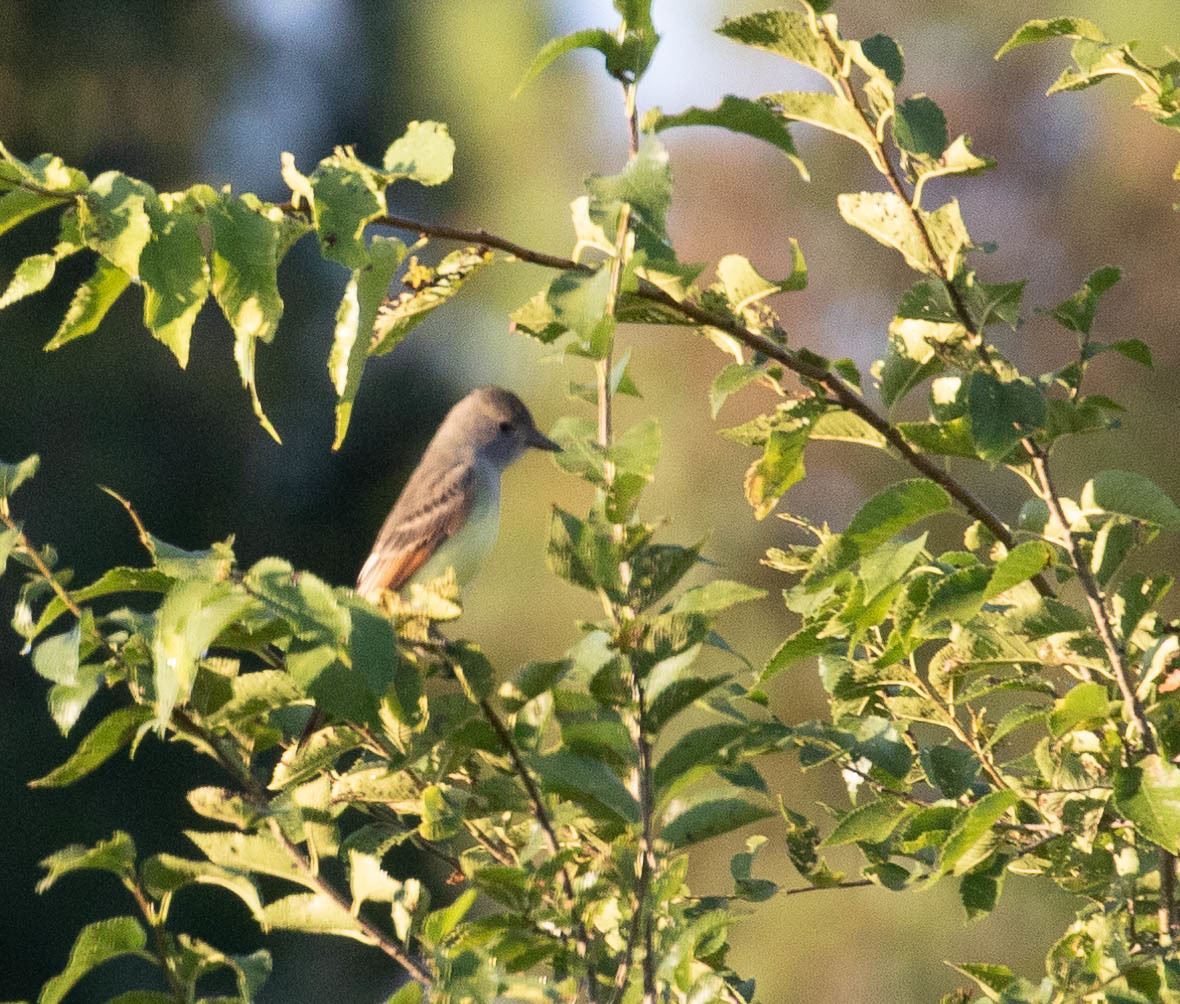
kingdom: Animalia
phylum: Chordata
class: Aves
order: Passeriformes
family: Tyrannidae
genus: Myiarchus
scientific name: Myiarchus crinitus
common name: Great crested flycatcher
